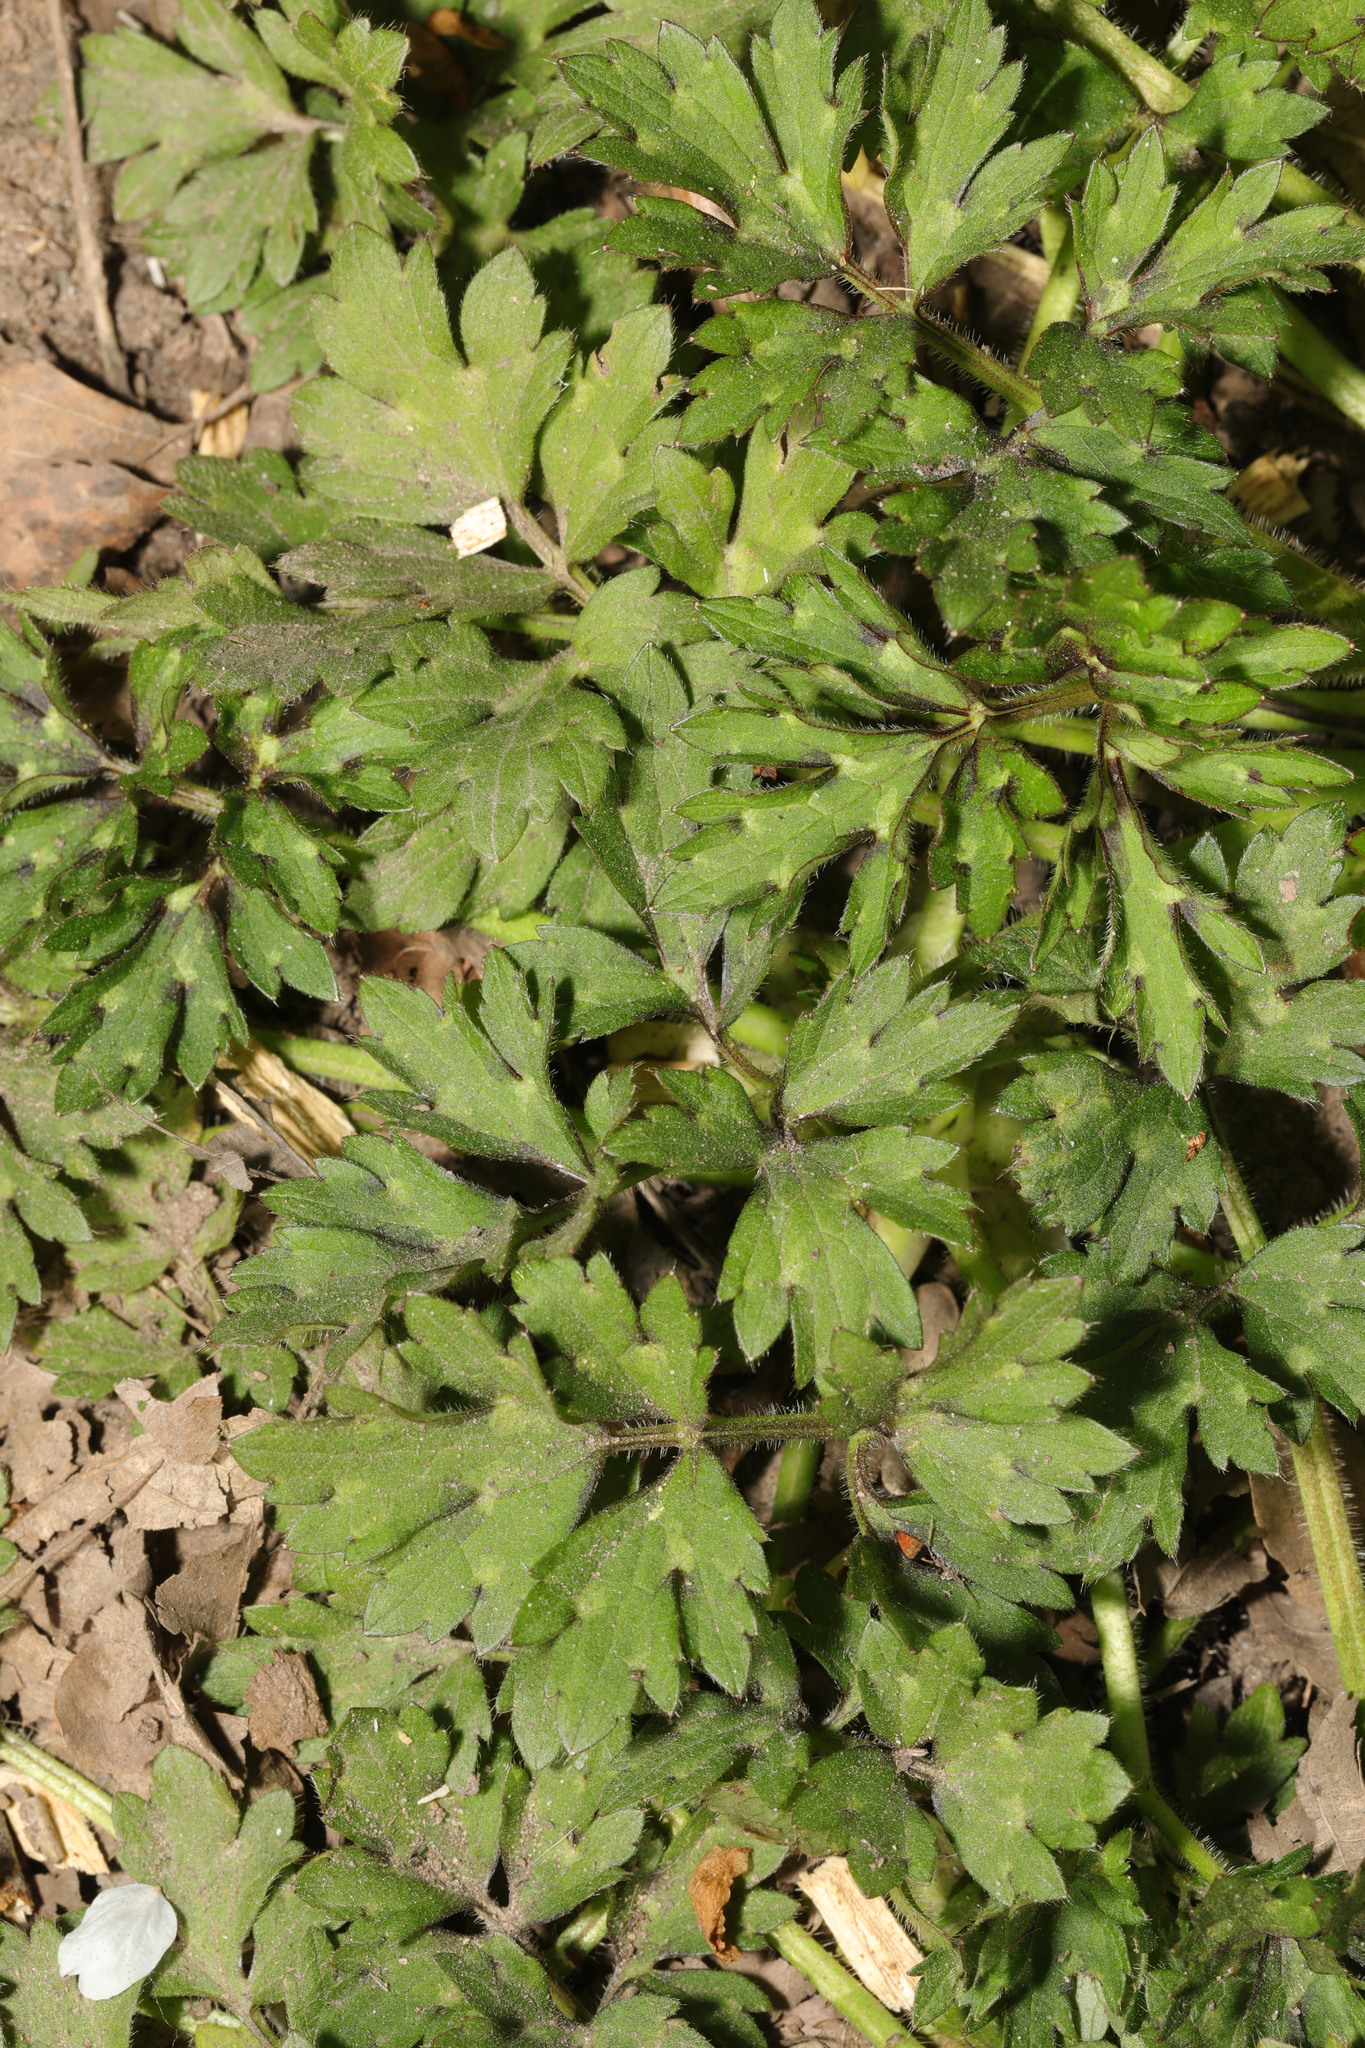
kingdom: Plantae
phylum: Tracheophyta
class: Magnoliopsida
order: Ranunculales
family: Ranunculaceae
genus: Ranunculus
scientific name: Ranunculus repens
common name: Creeping buttercup
